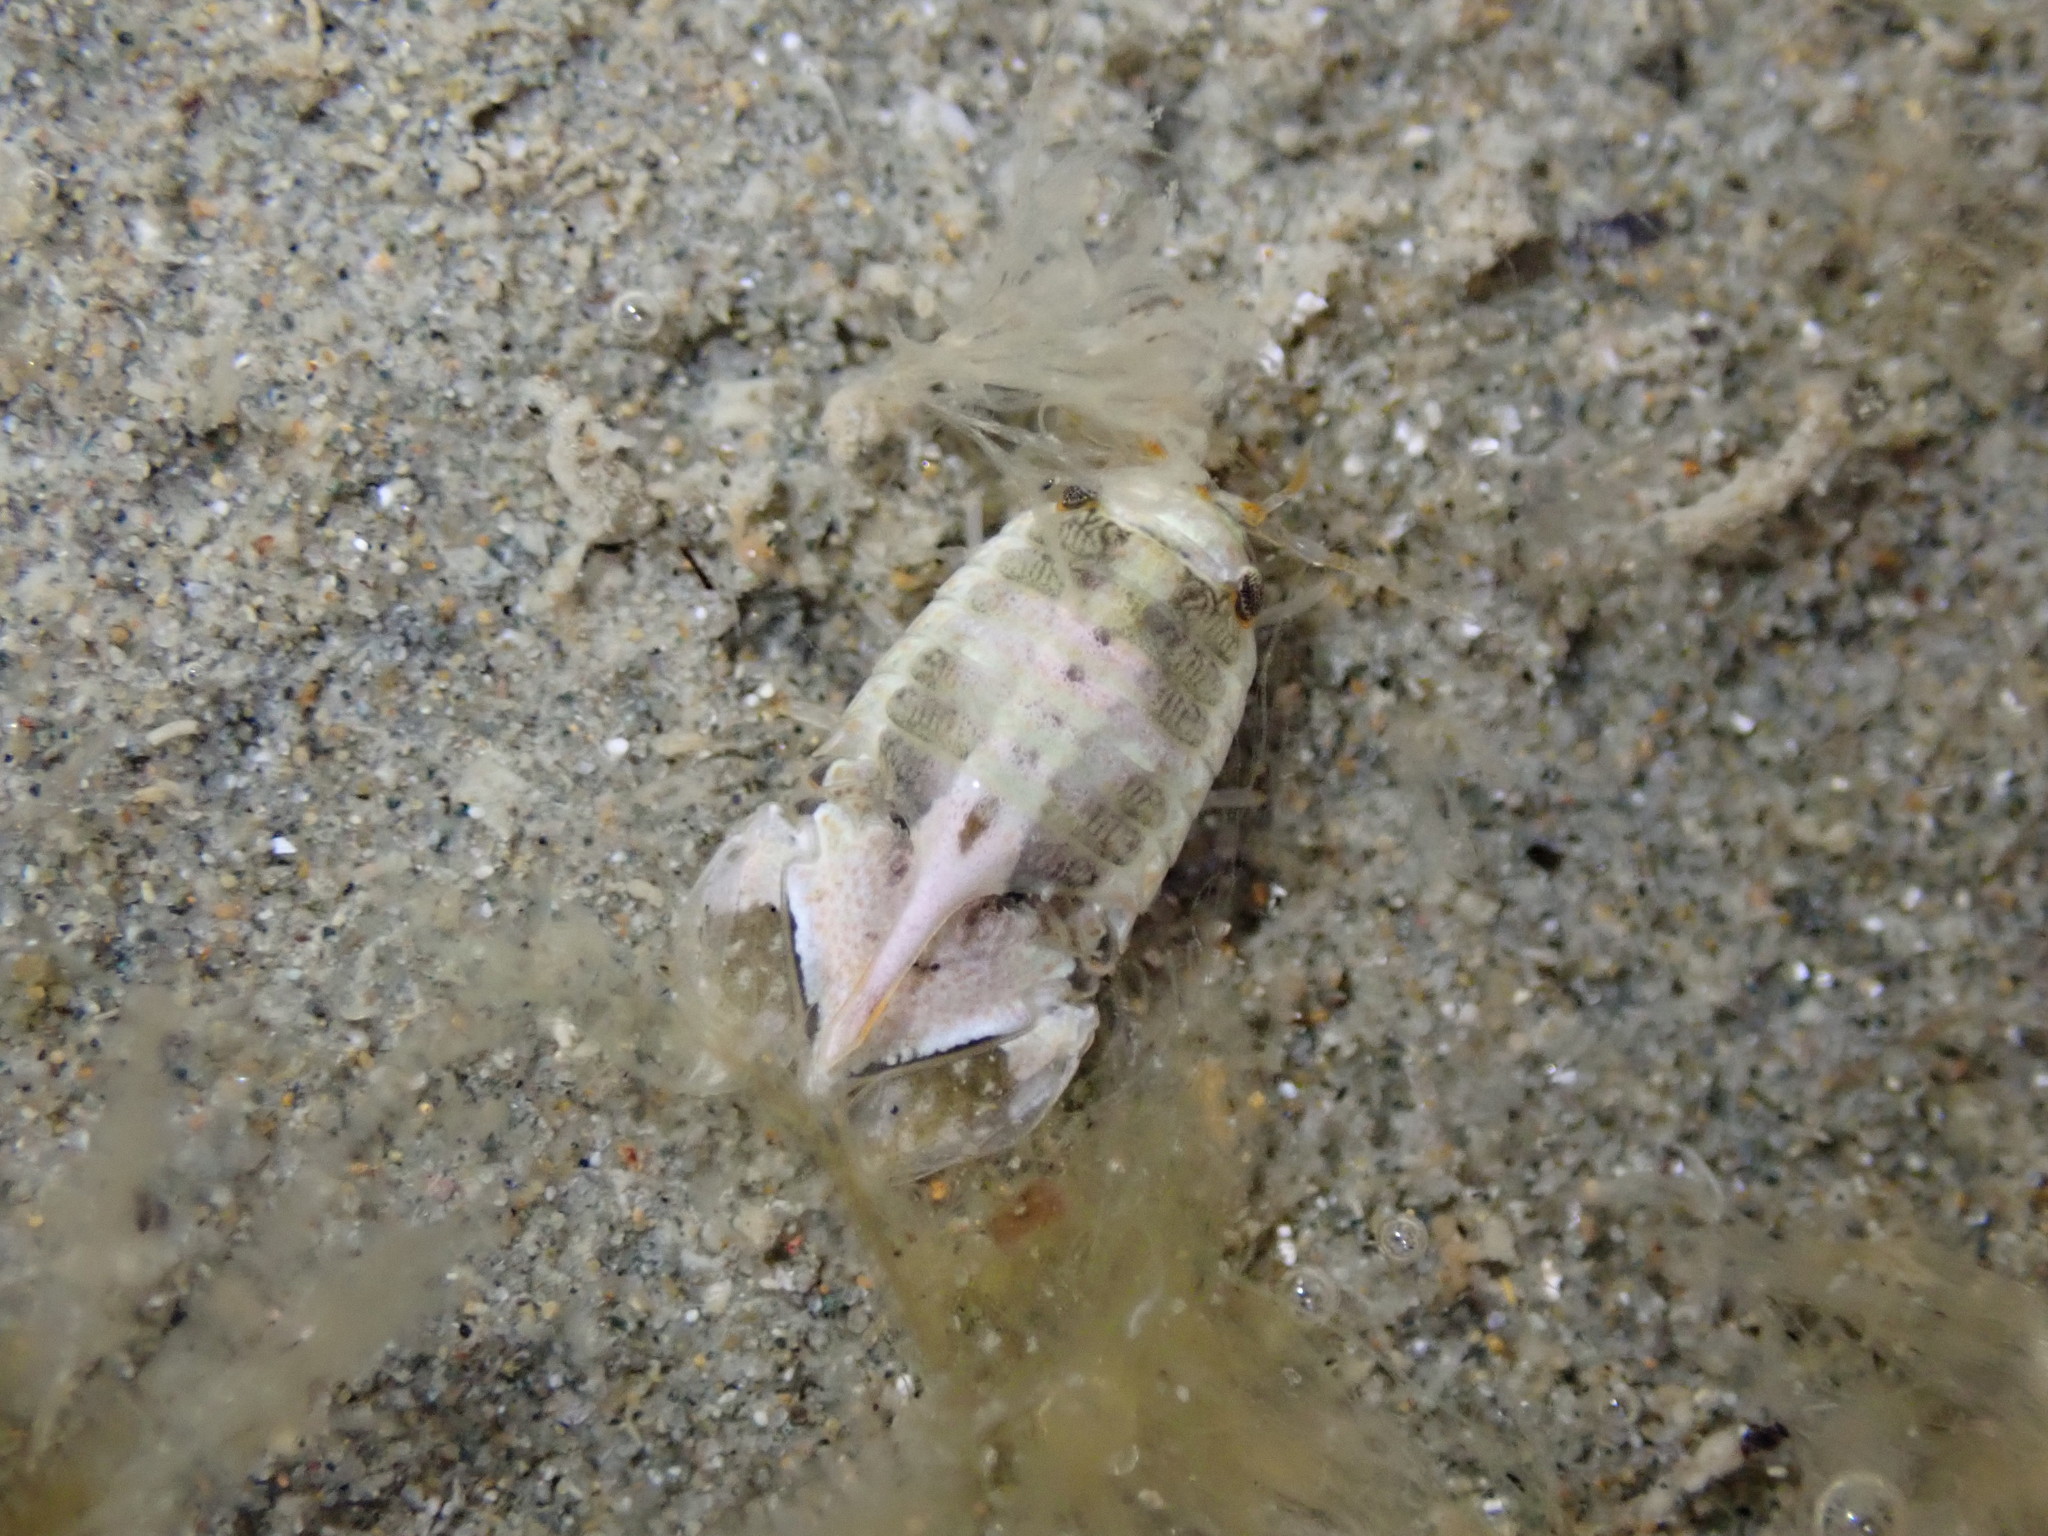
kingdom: Animalia
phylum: Arthropoda
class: Malacostraca
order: Isopoda
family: Sphaeromatidae
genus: Isocladus
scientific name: Isocladus armatus
